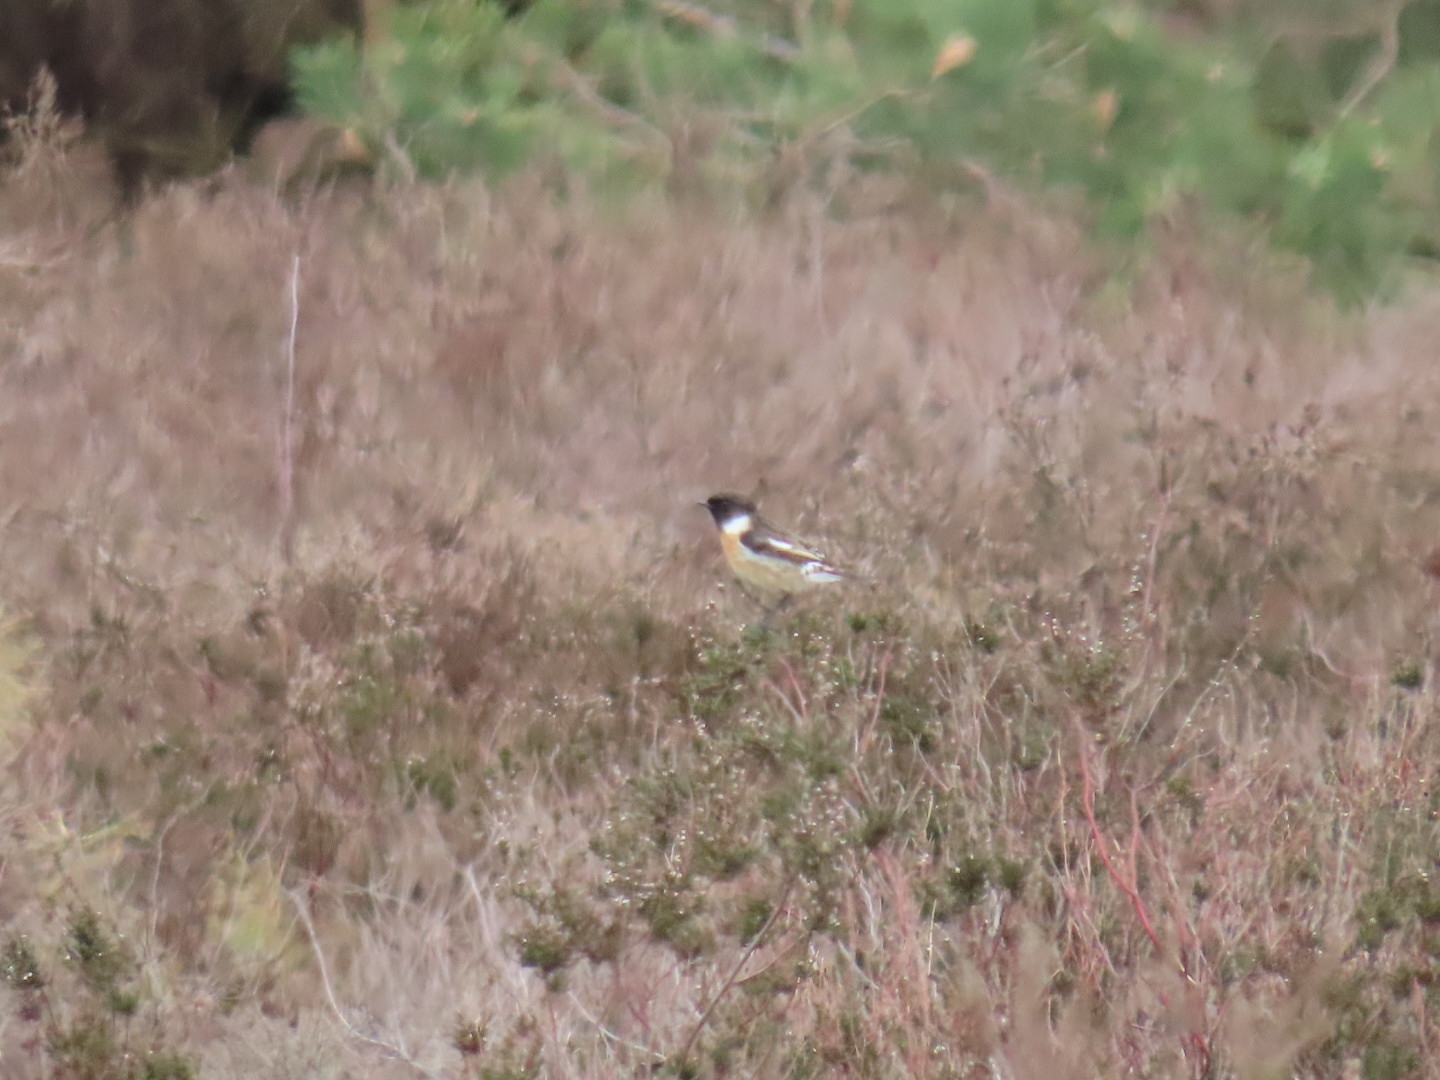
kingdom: Animalia
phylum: Chordata
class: Aves
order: Passeriformes
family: Muscicapidae
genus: Saxicola
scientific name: Saxicola rubicola
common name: European stonechat
